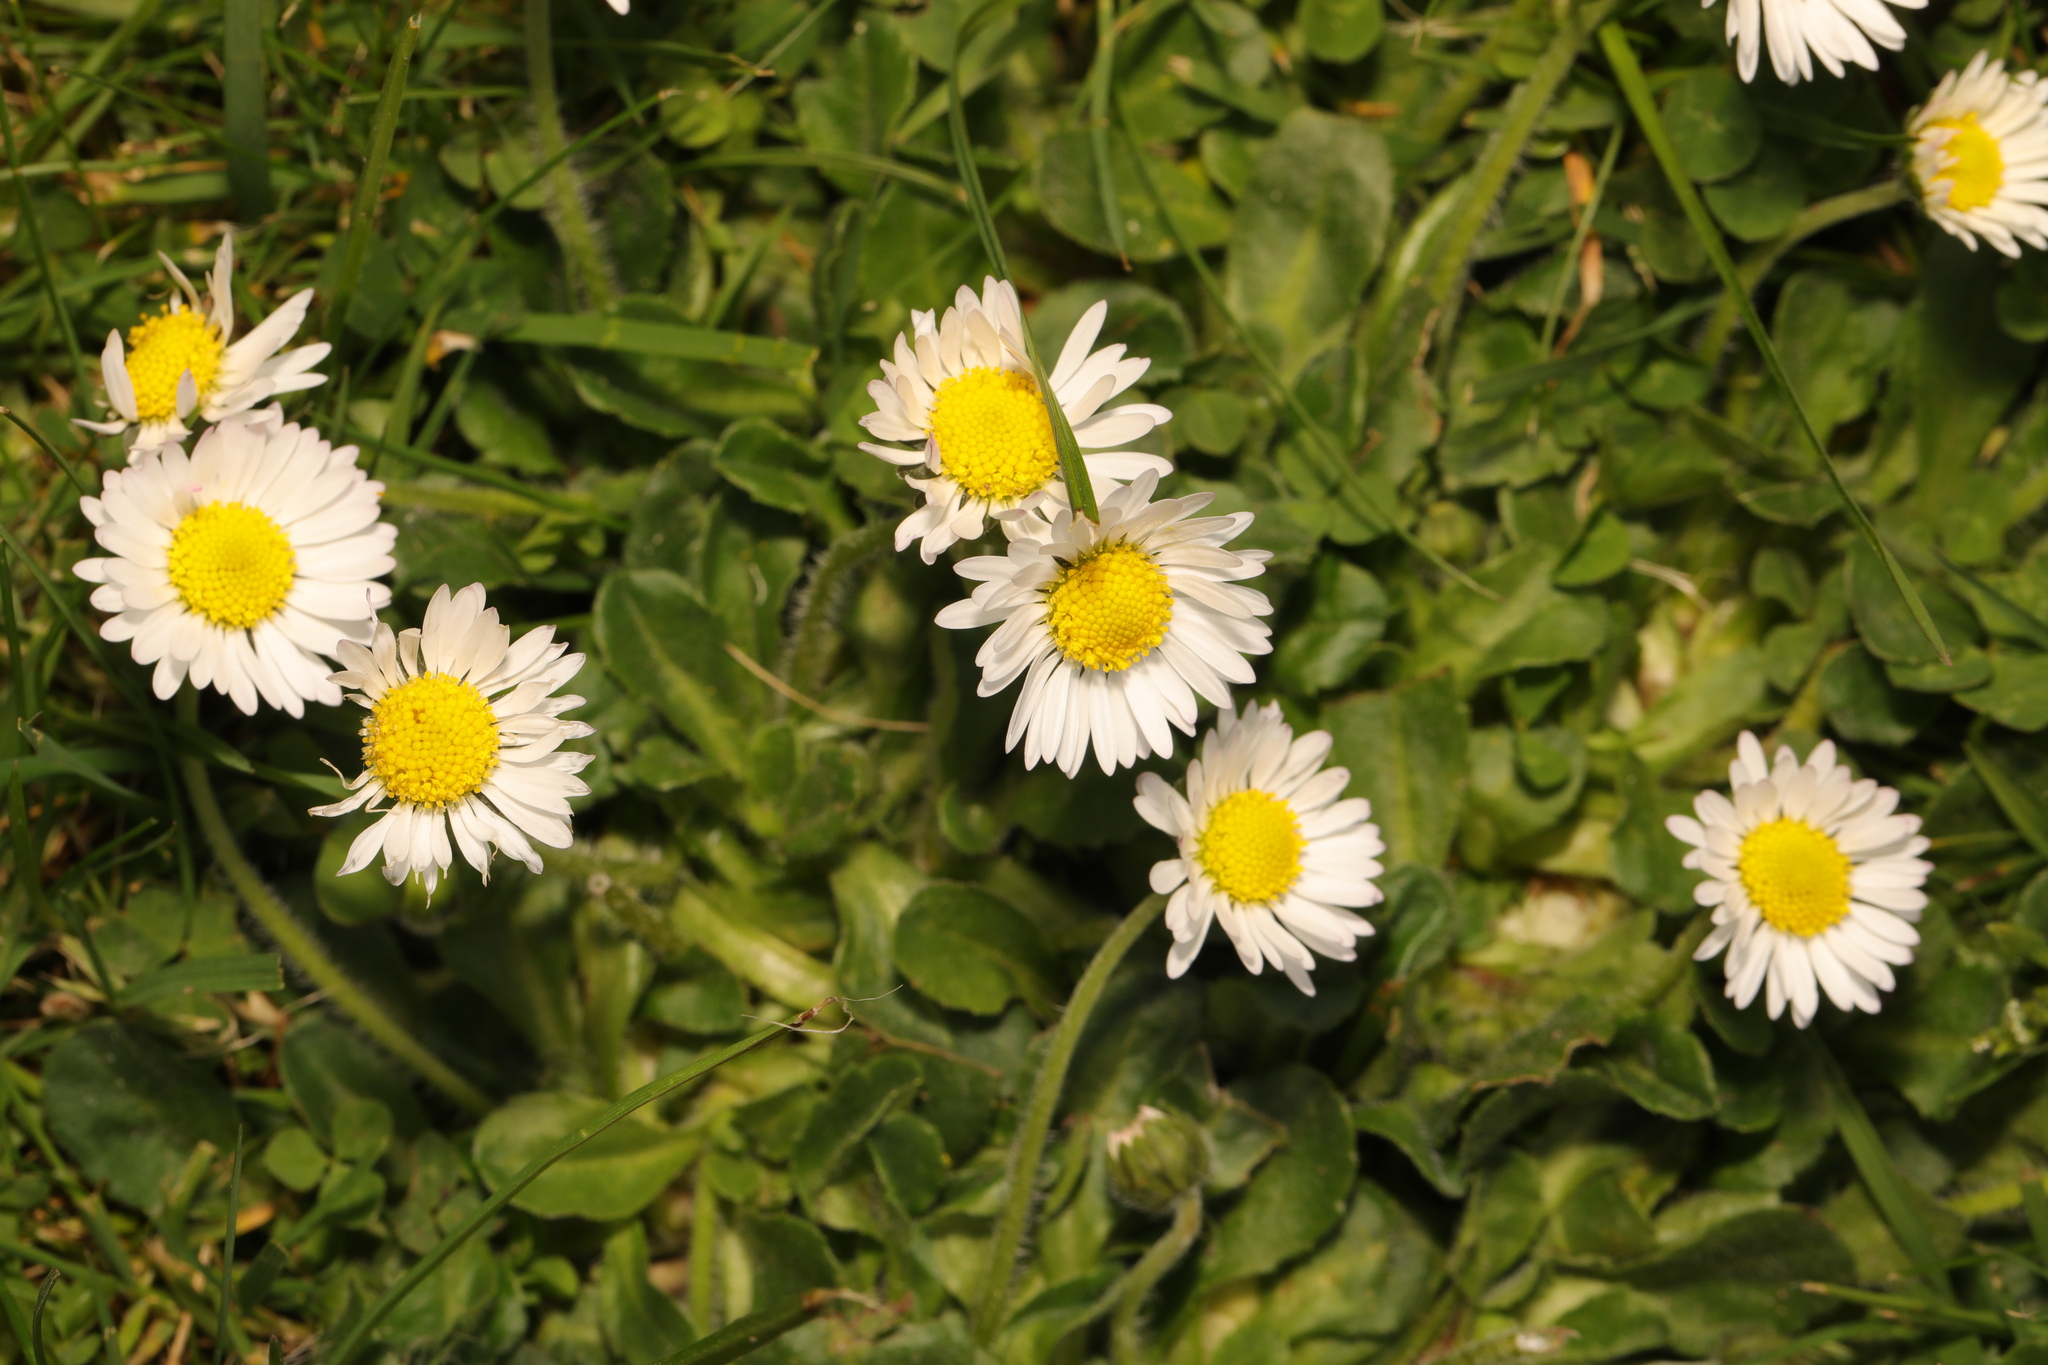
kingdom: Plantae
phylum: Tracheophyta
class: Magnoliopsida
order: Asterales
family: Asteraceae
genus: Bellis
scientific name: Bellis perennis
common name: Lawndaisy
